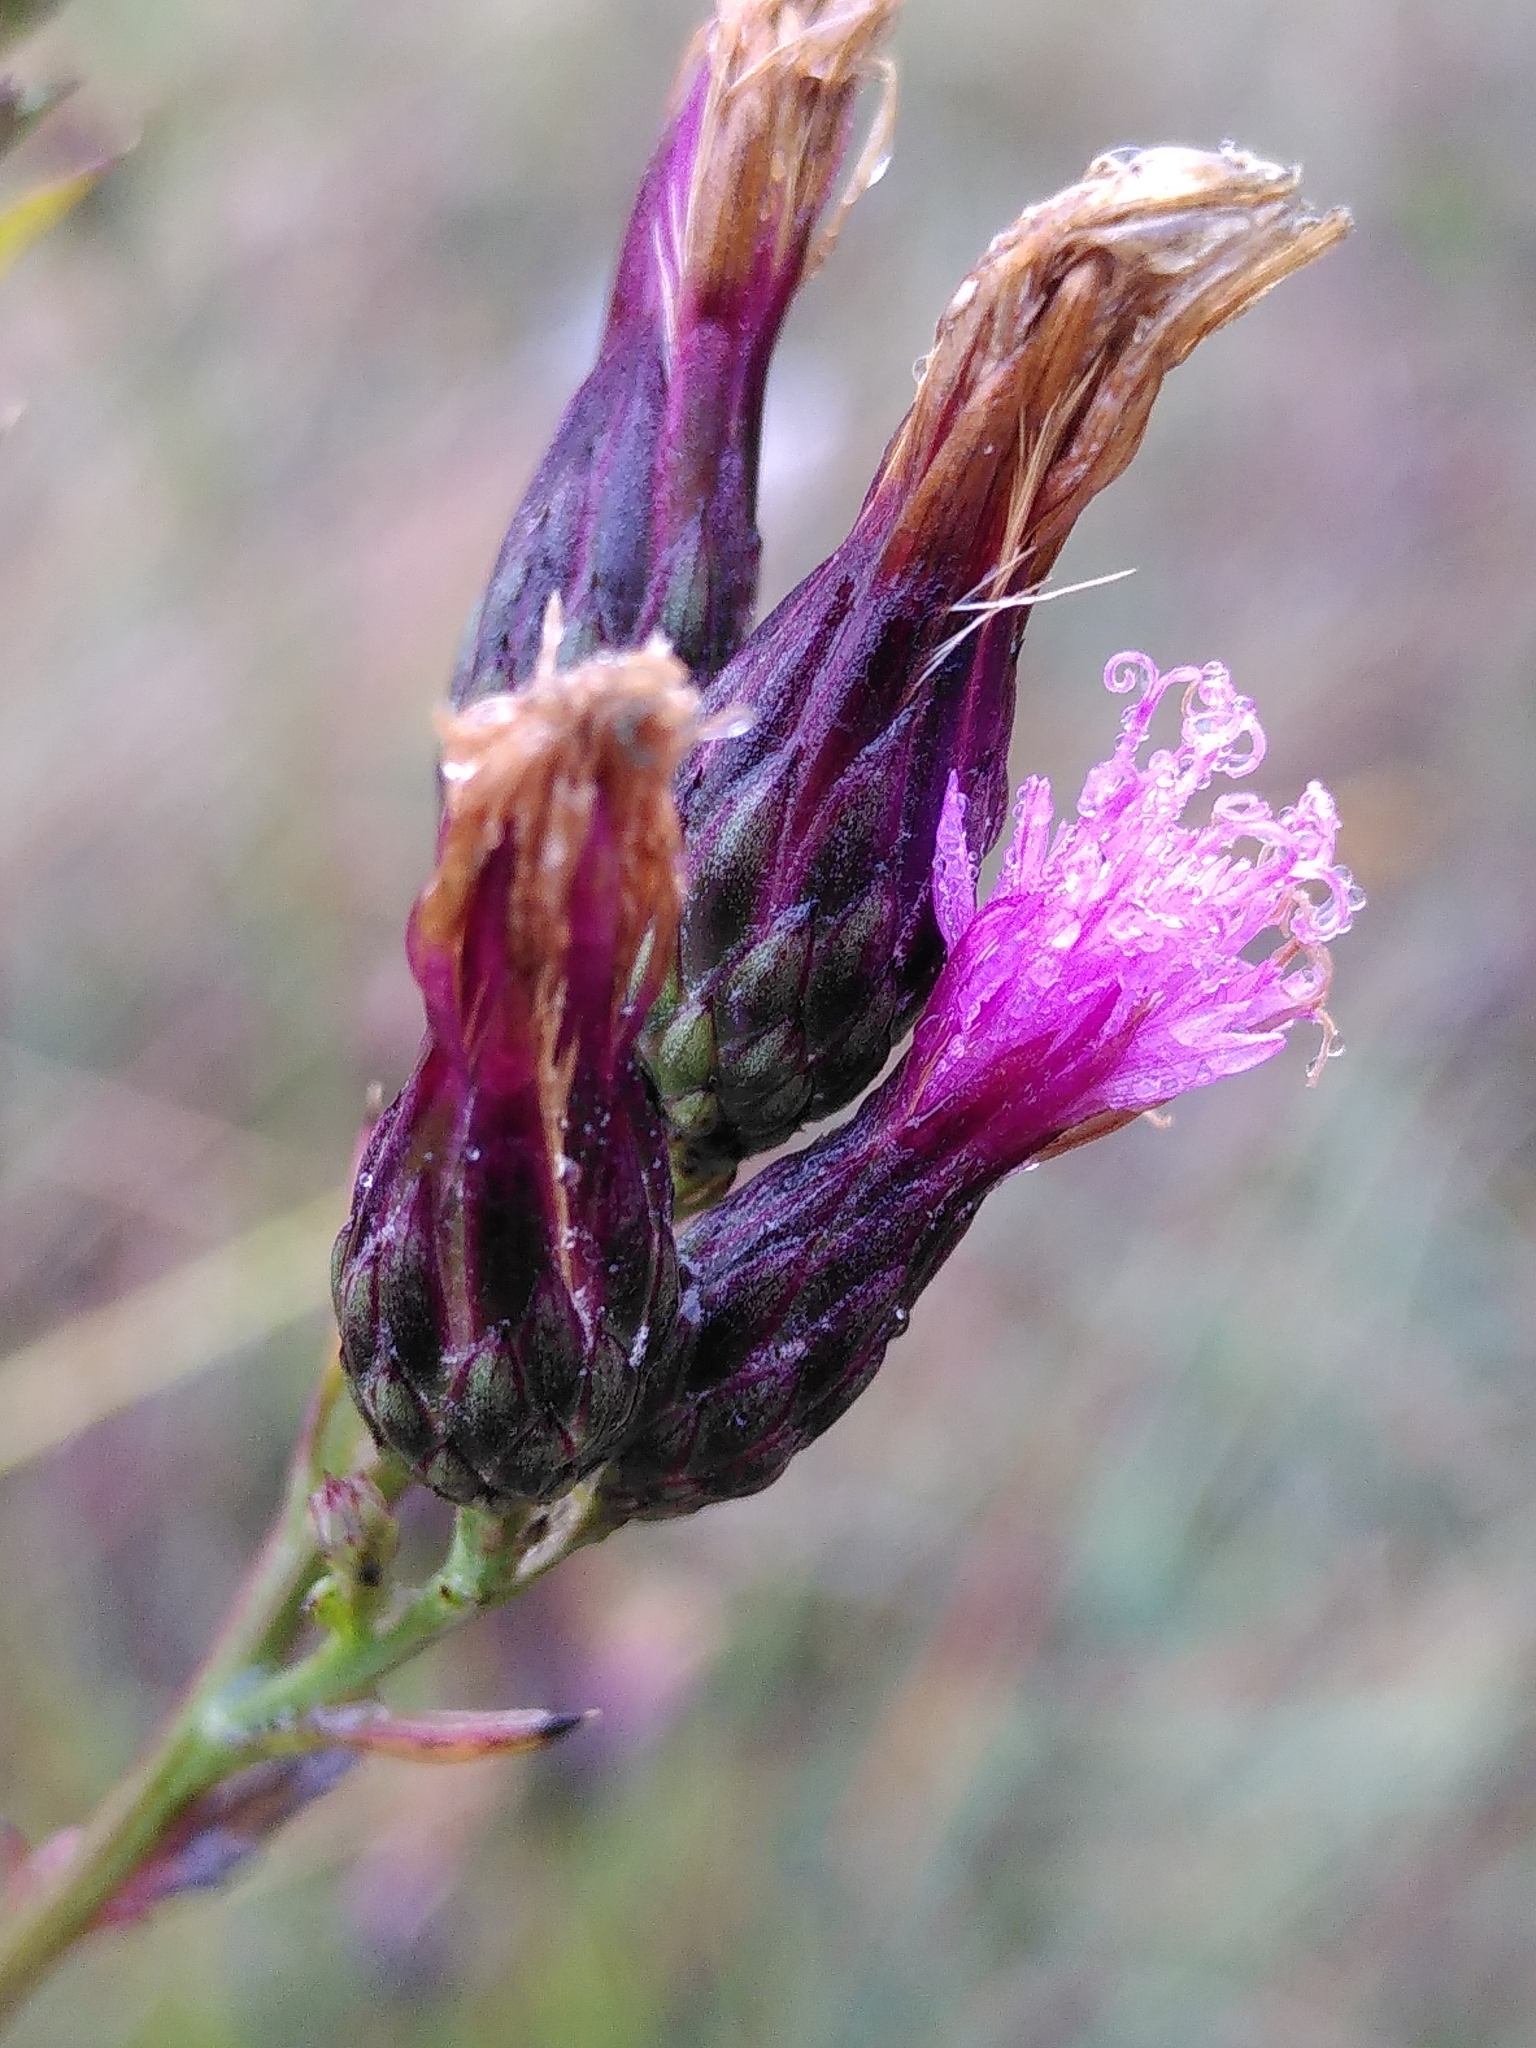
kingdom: Plantae
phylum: Tracheophyta
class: Magnoliopsida
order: Asterales
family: Asteraceae
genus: Serratula
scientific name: Serratula tinctoria
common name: Saw-wort
